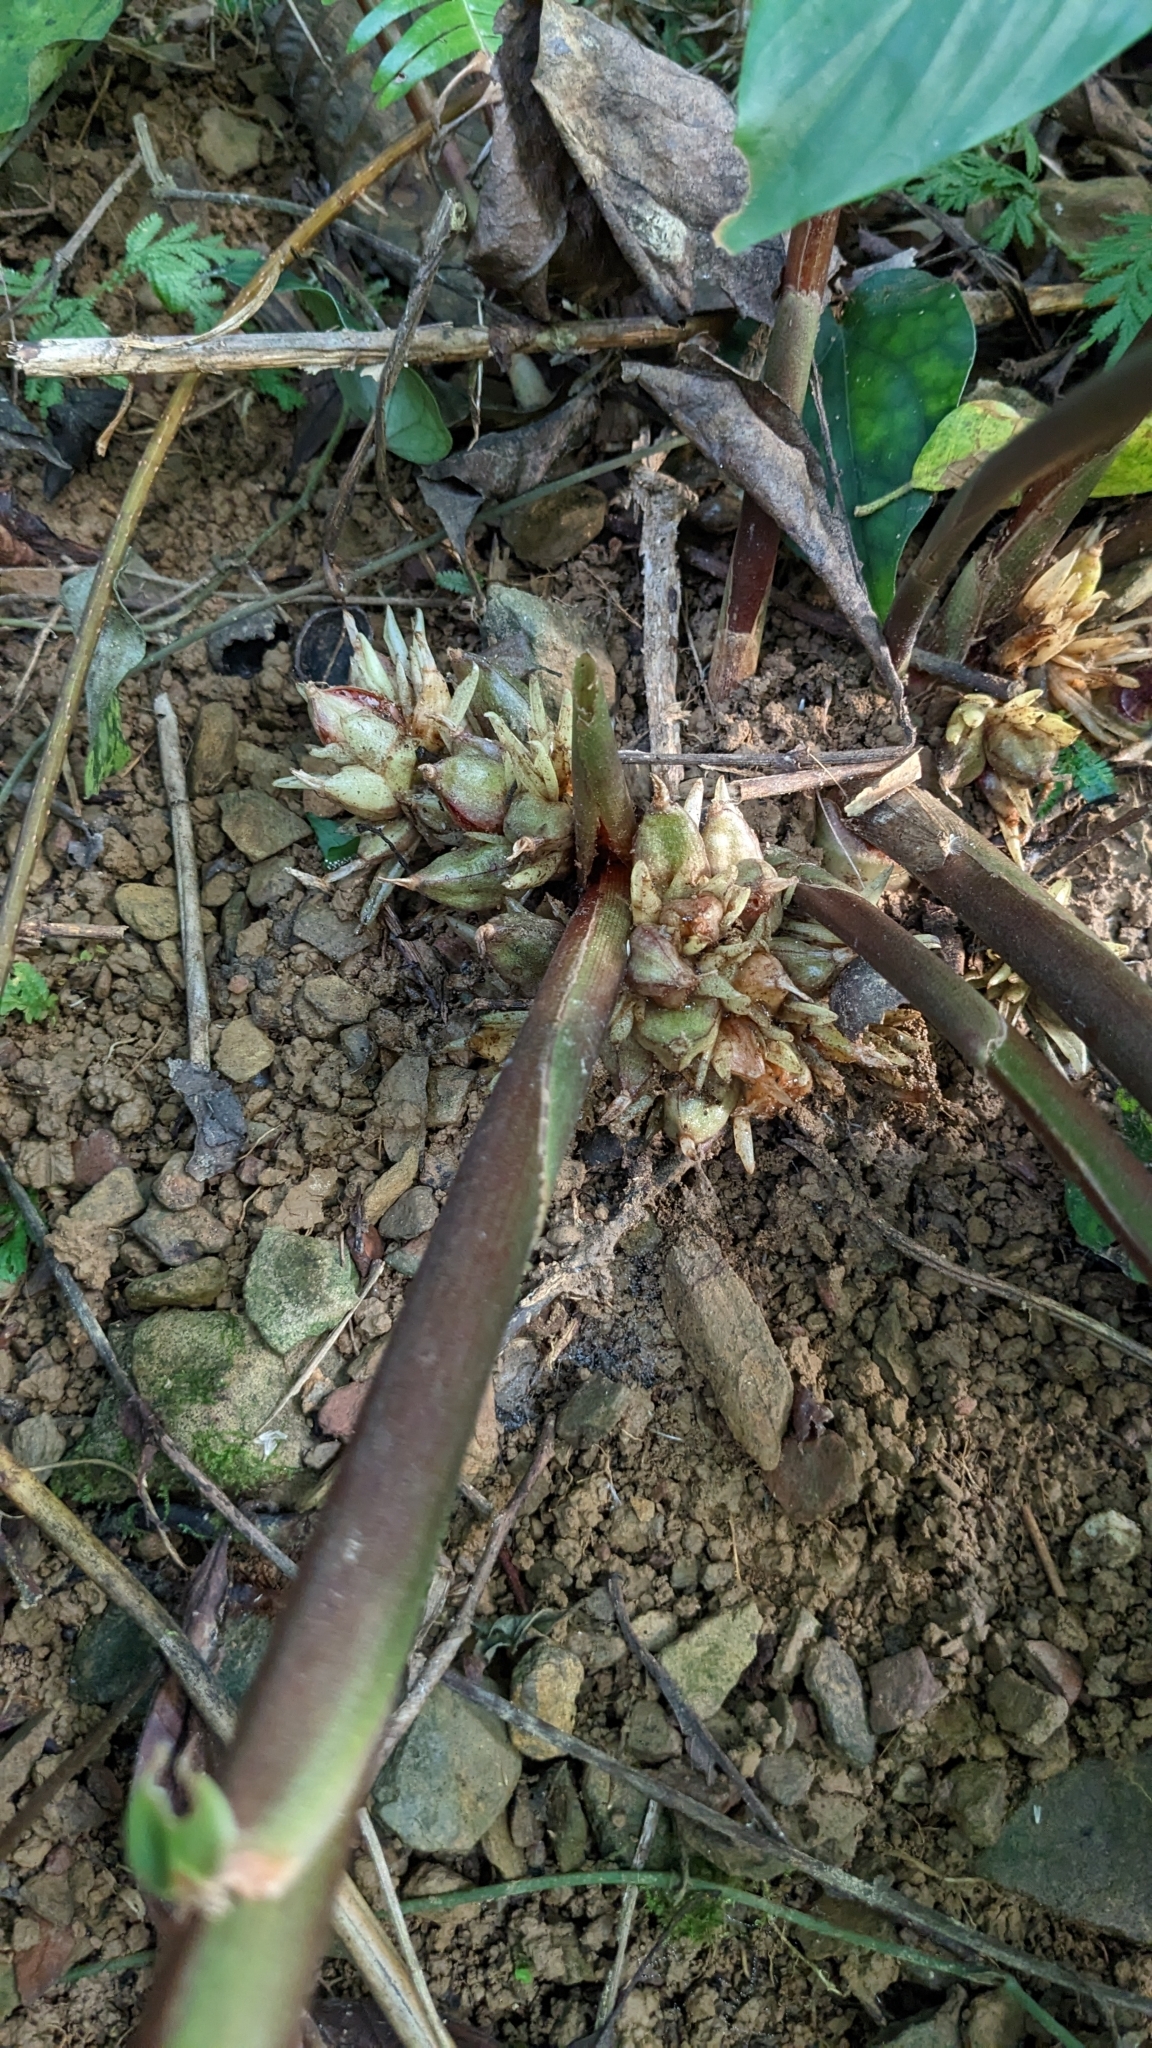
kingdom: Plantae
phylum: Tracheophyta
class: Liliopsida
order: Zingiberales
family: Zingiberaceae
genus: Zingiber
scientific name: Zingiber kawagoii
